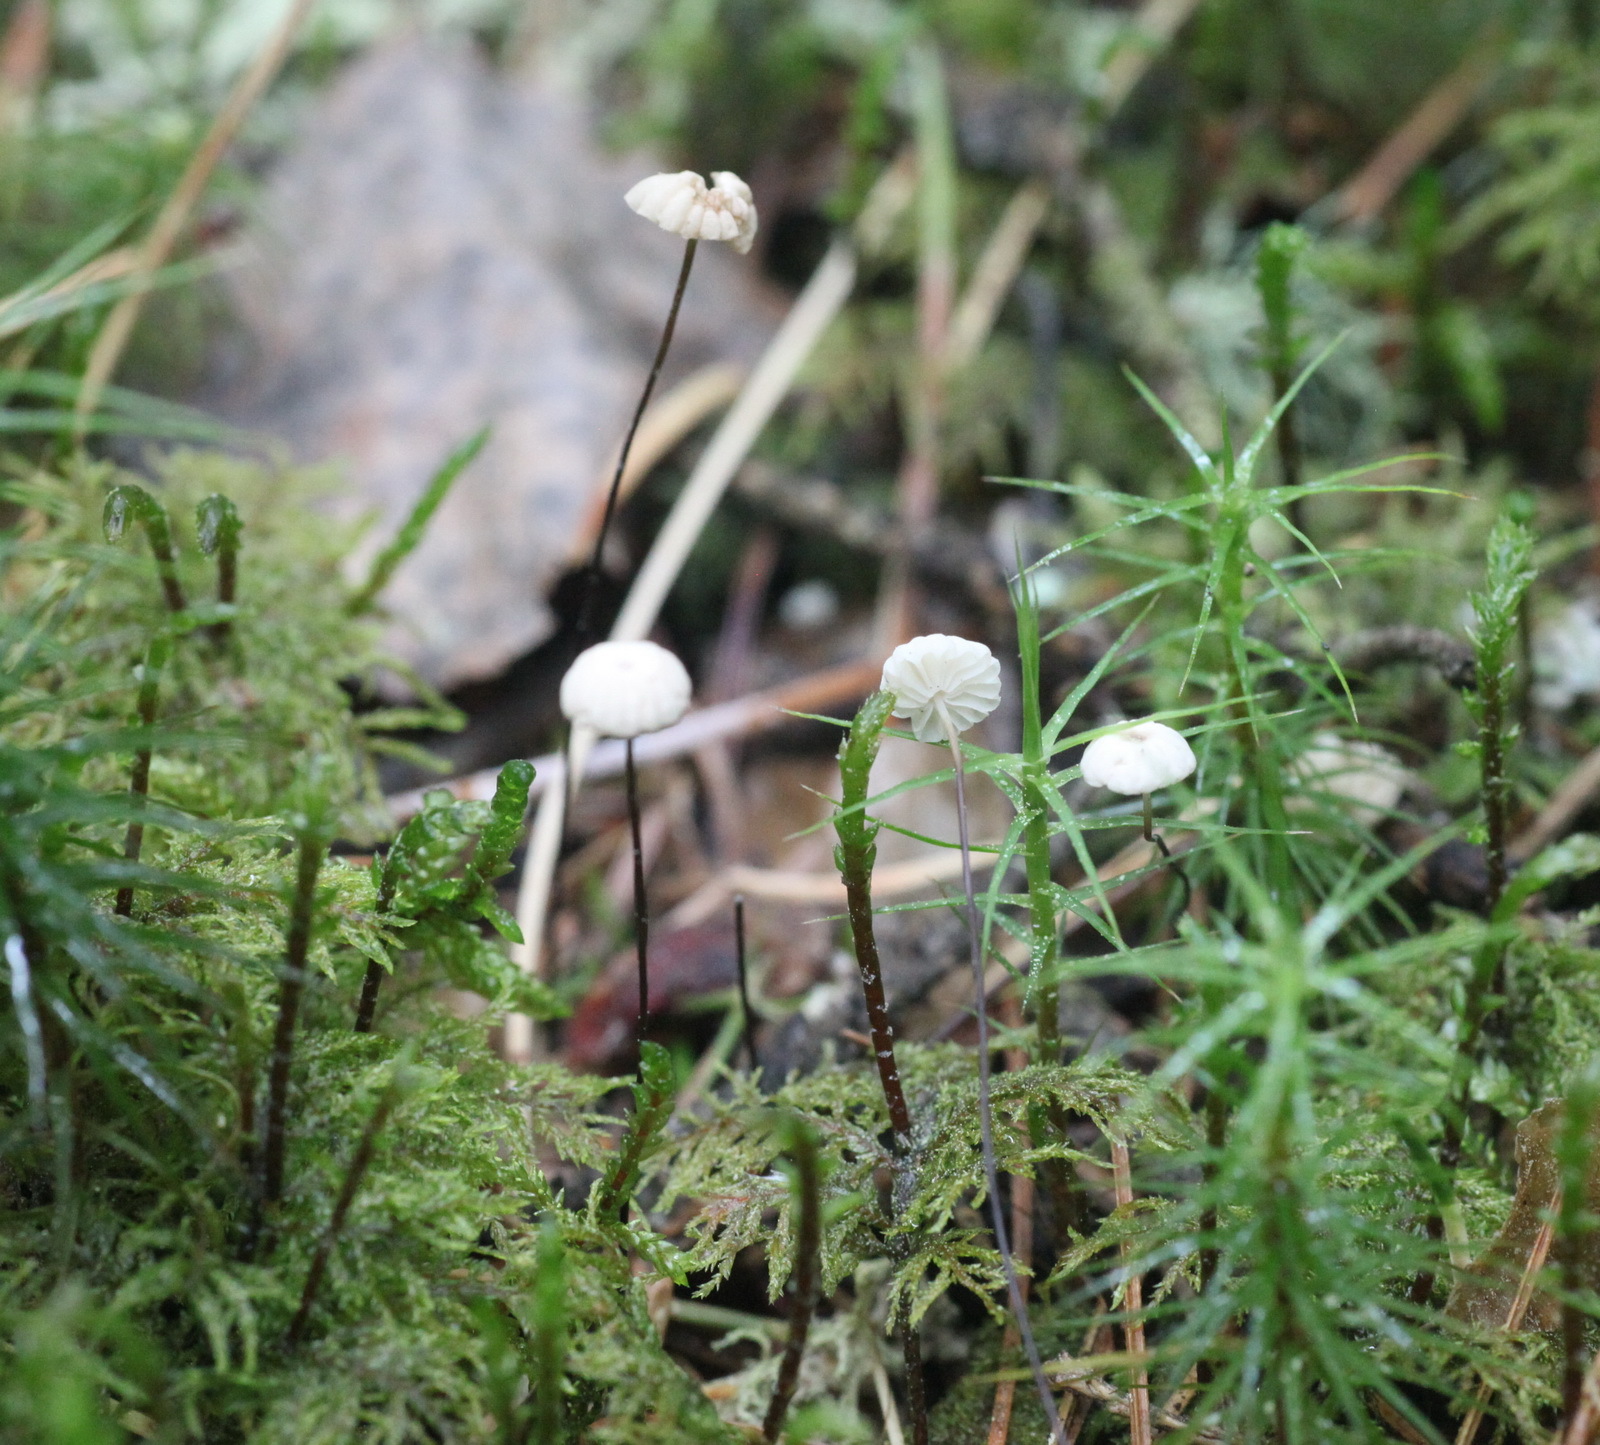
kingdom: Fungi
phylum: Basidiomycota
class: Agaricomycetes
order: Agaricales
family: Marasmiaceae
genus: Marasmius
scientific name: Marasmius rotula
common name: Collared parachute
